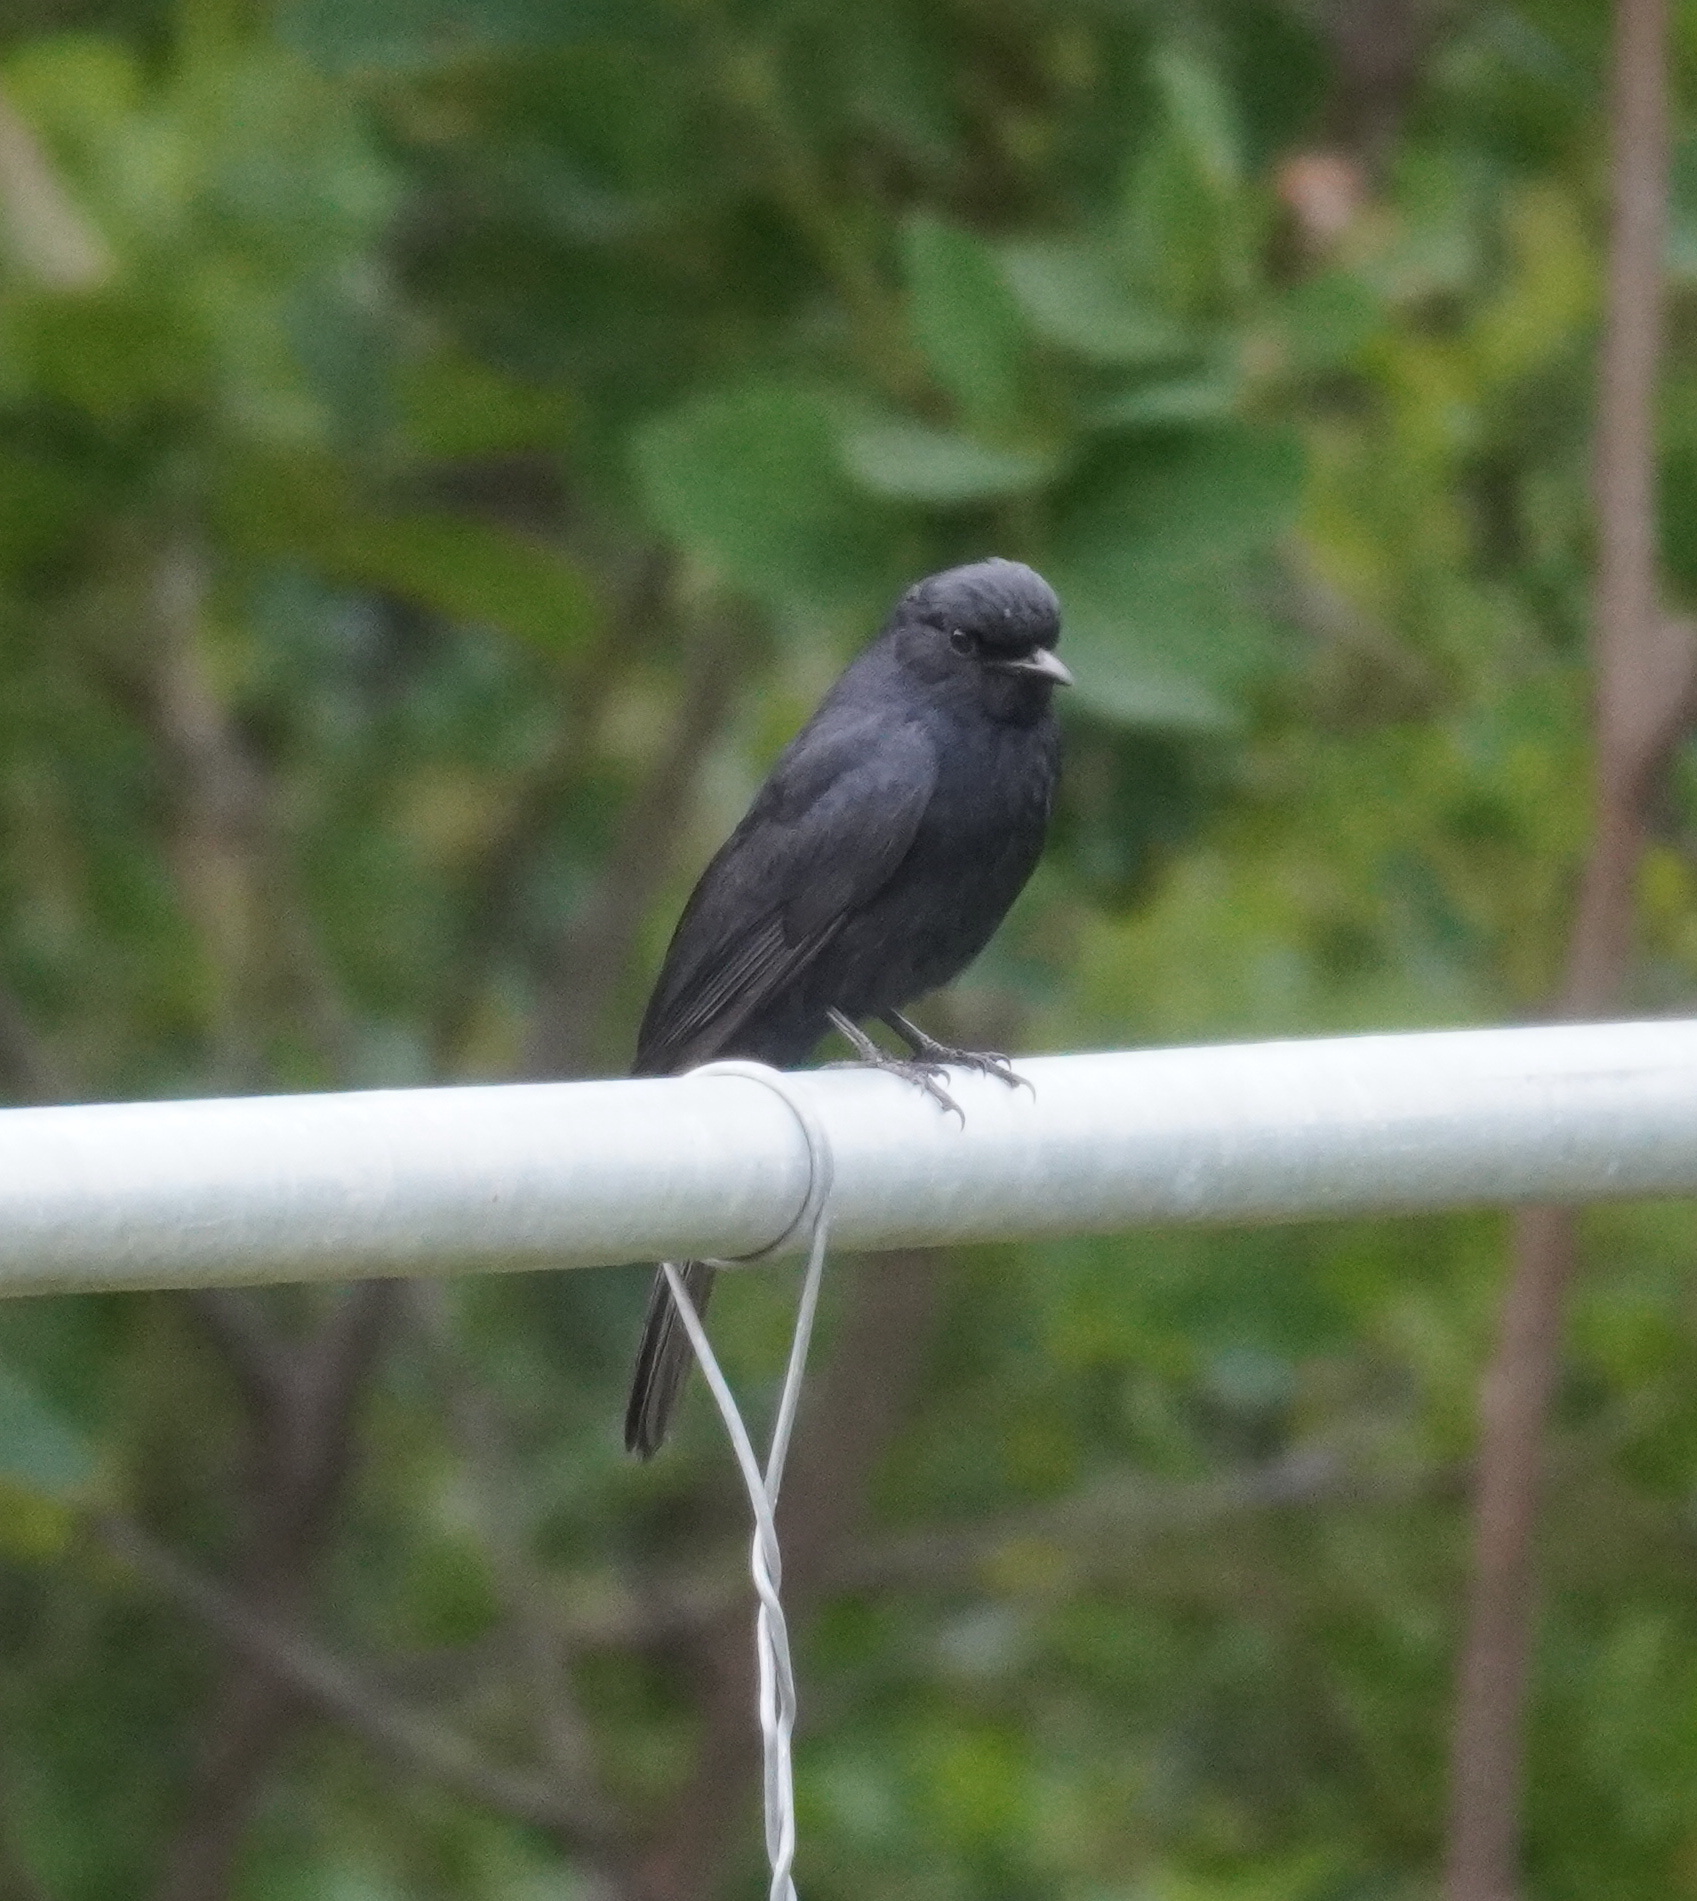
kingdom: Animalia
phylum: Chordata
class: Aves
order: Passeriformes
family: Muscicapidae
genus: Melaenornis
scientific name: Melaenornis pammelaina
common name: Southern black flycatcher
